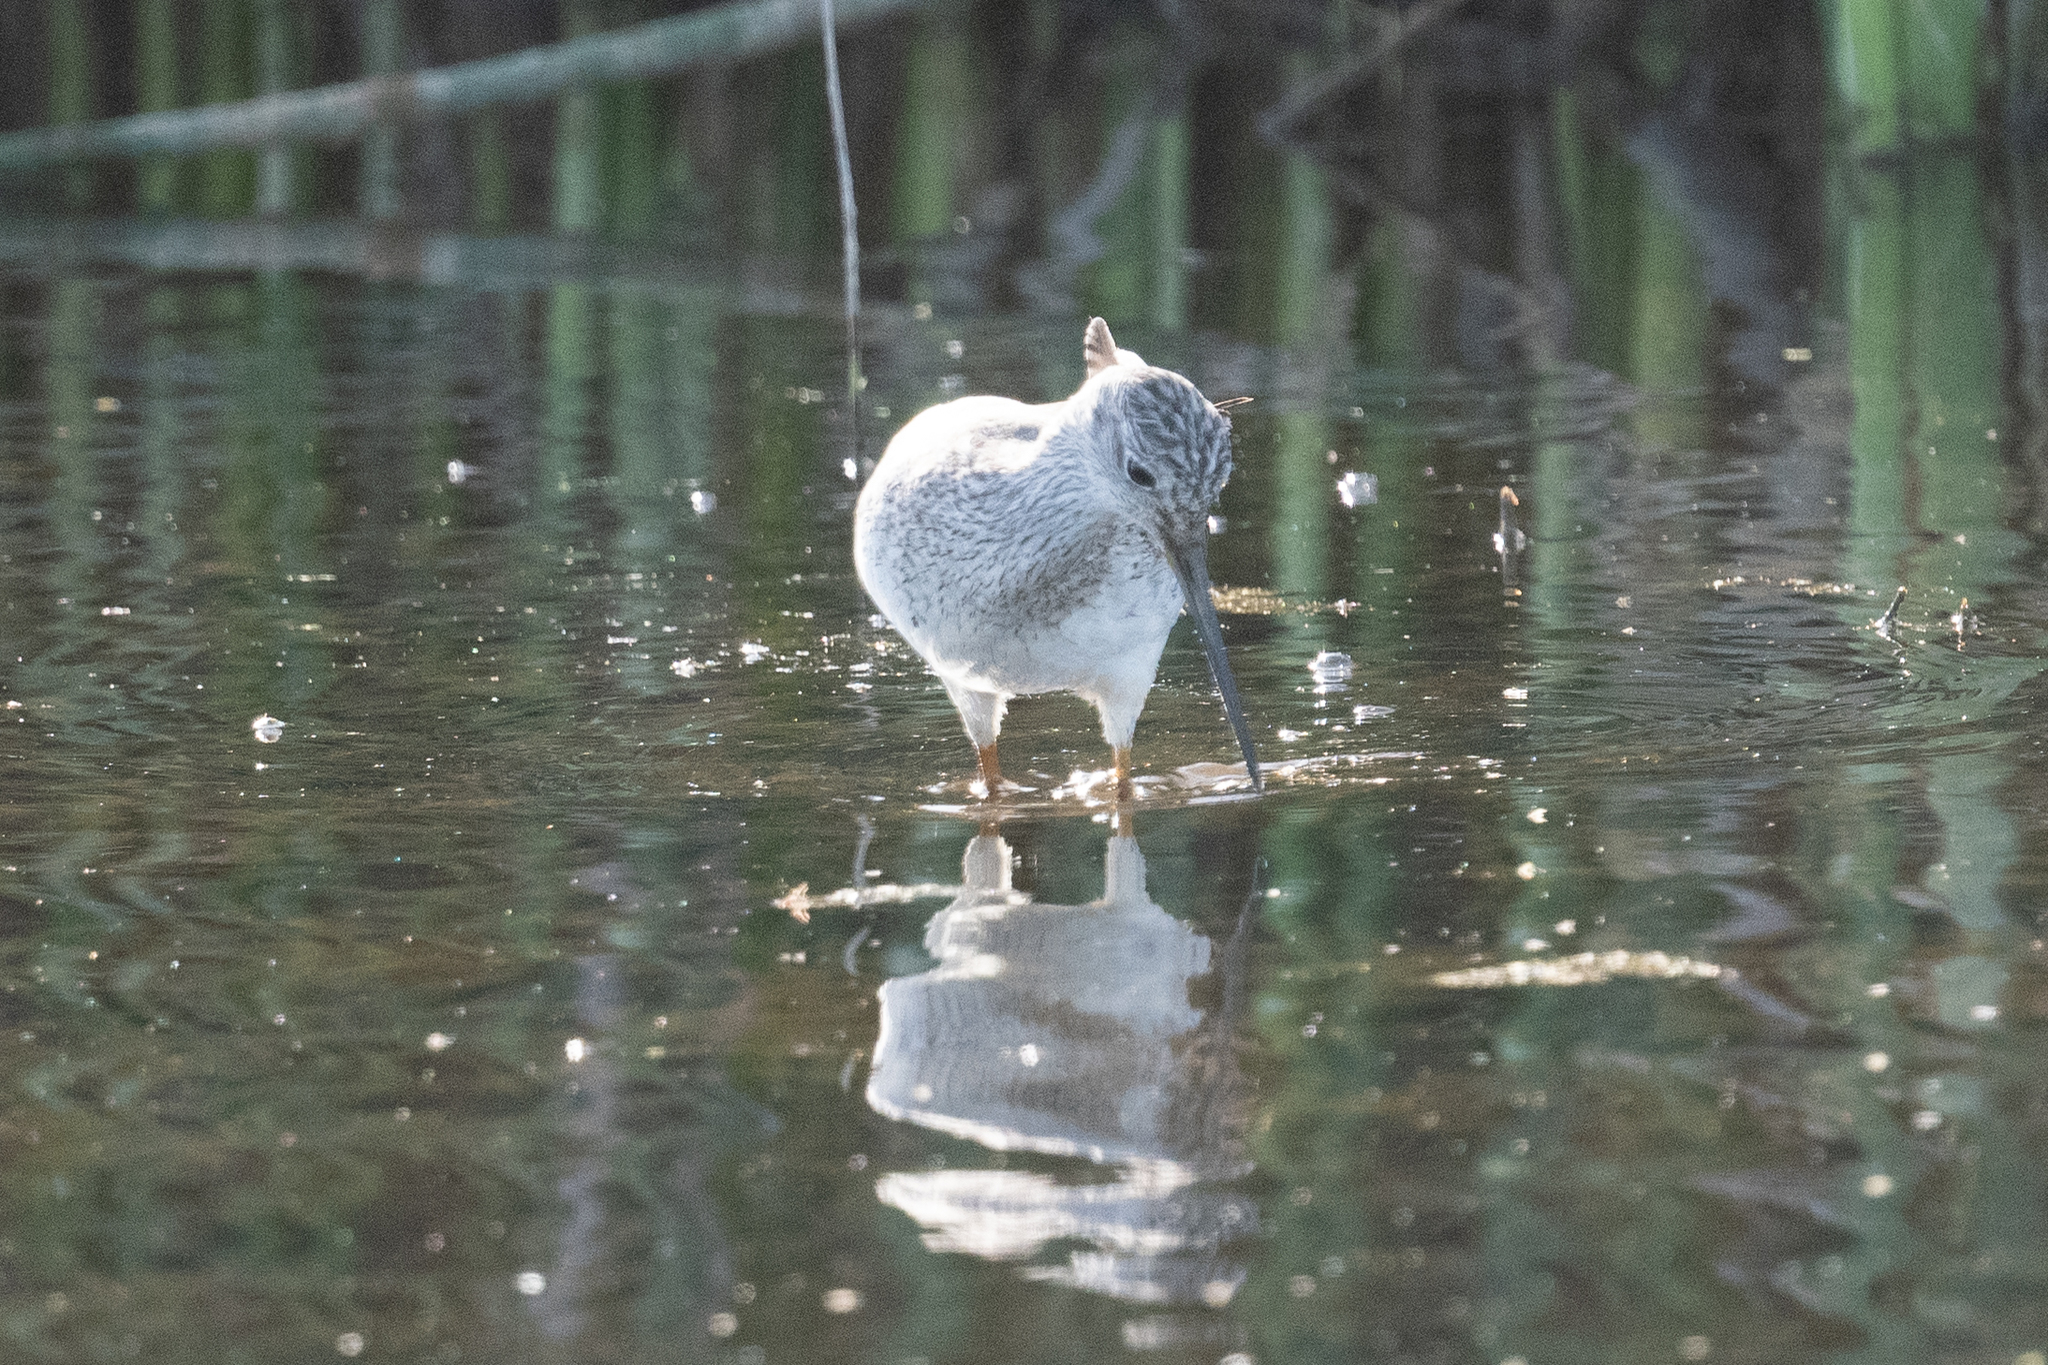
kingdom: Animalia
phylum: Chordata
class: Aves
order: Charadriiformes
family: Scolopacidae
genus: Tringa
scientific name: Tringa melanoleuca
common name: Greater yellowlegs
